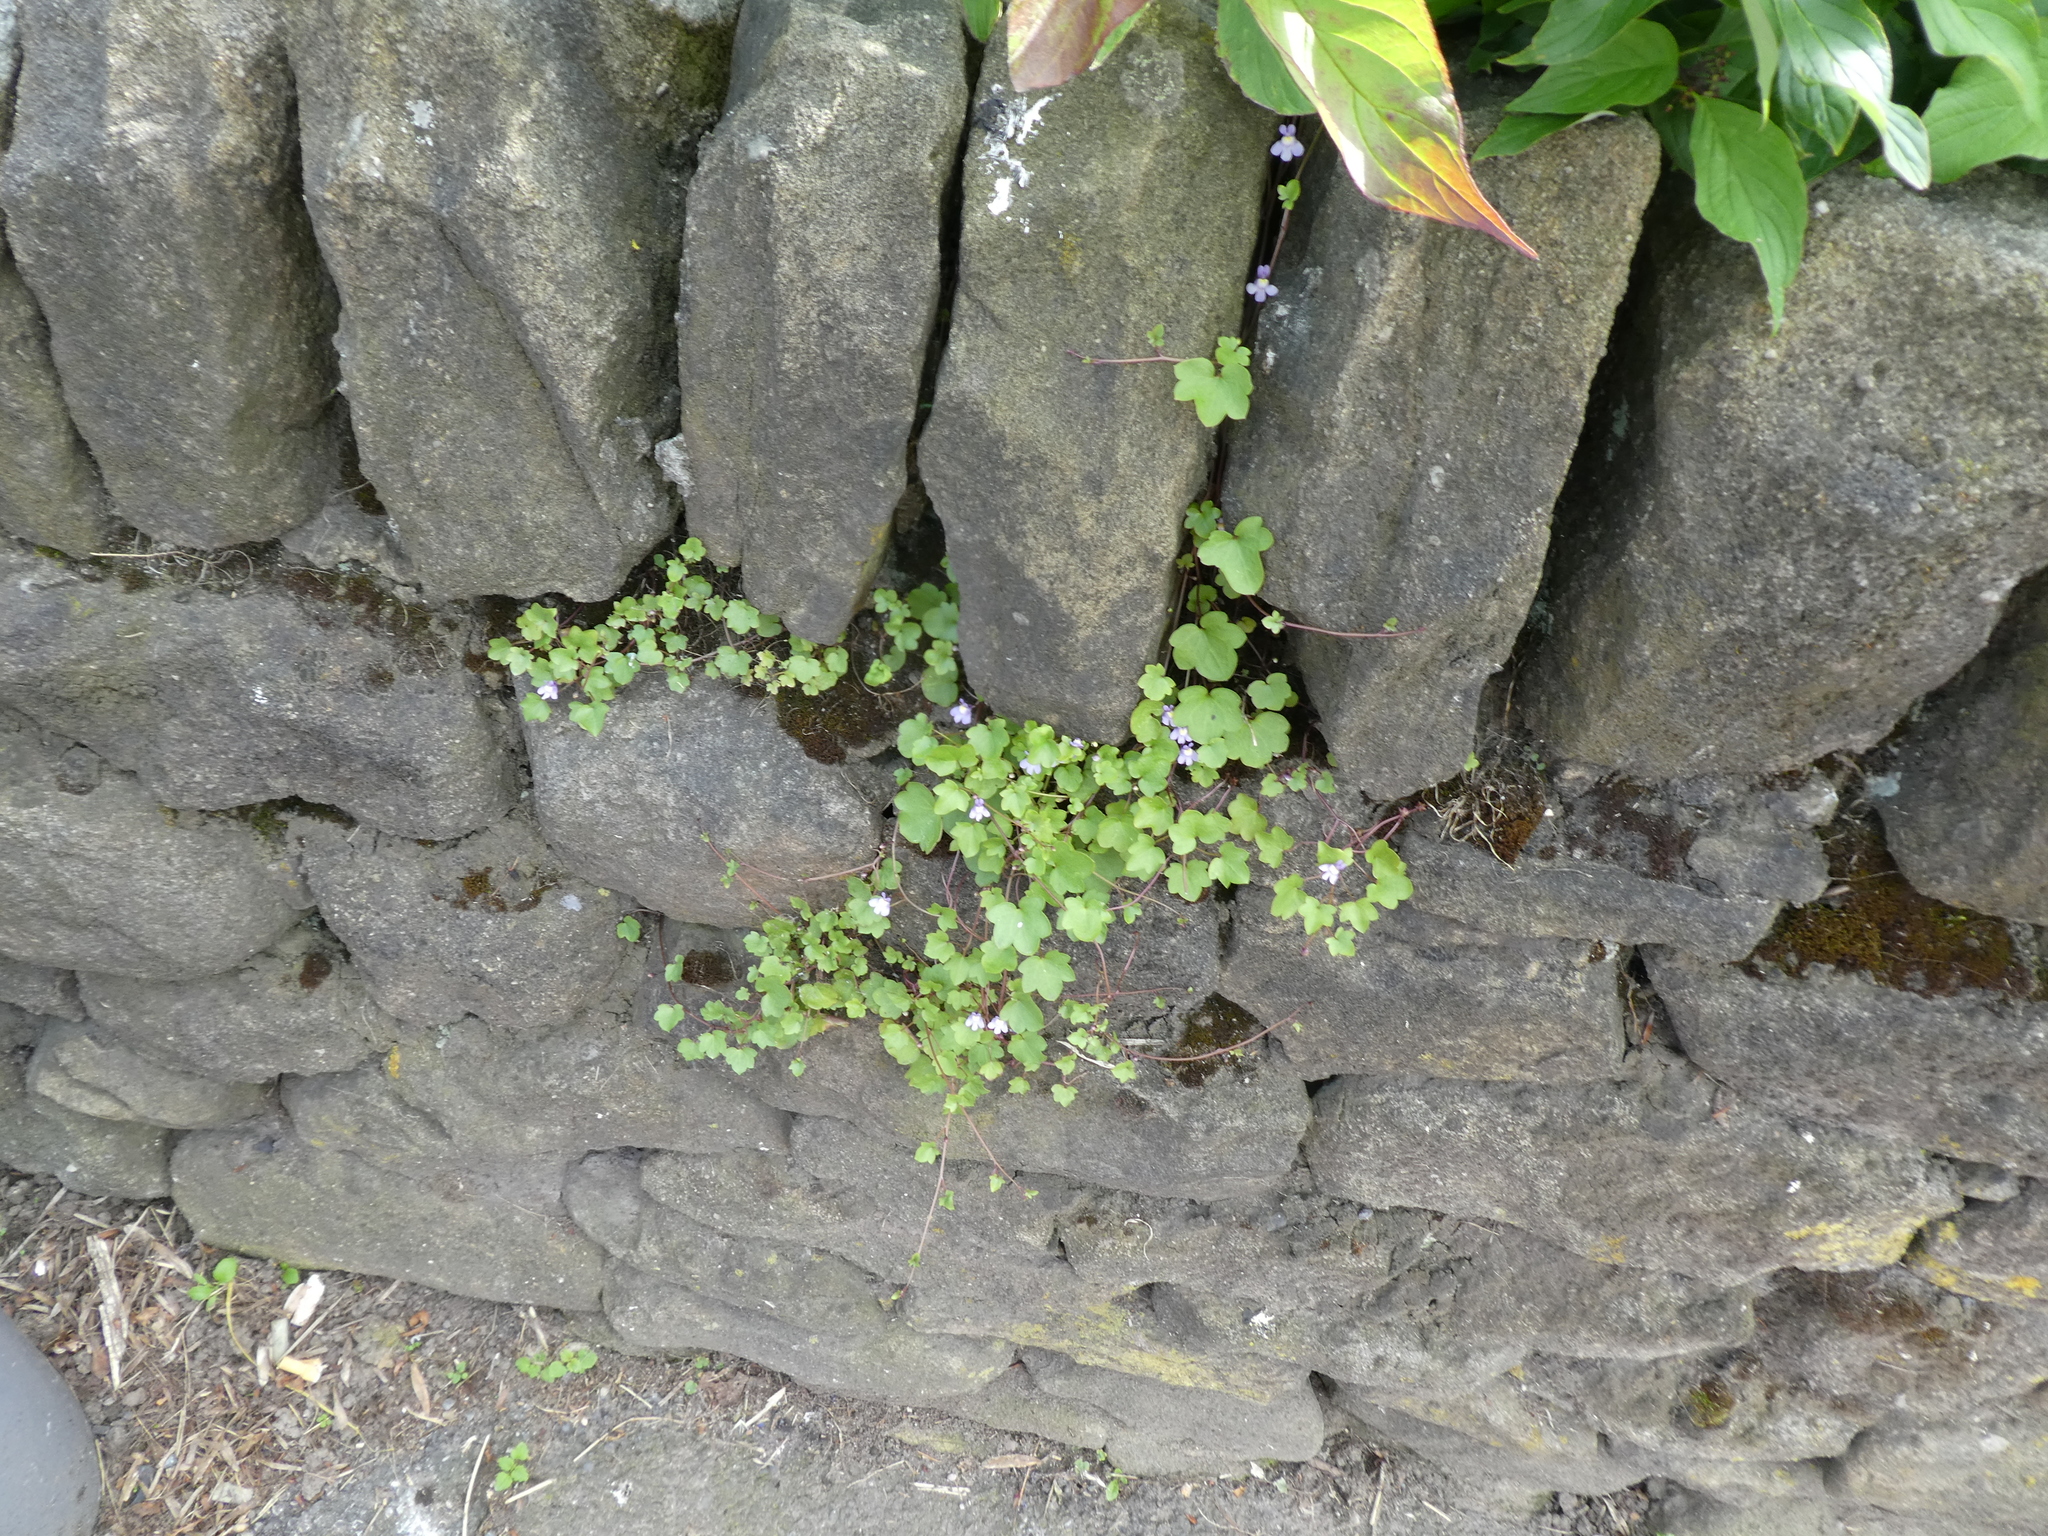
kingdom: Plantae
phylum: Tracheophyta
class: Magnoliopsida
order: Lamiales
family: Plantaginaceae
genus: Cymbalaria
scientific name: Cymbalaria muralis
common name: Ivy-leaved toadflax
